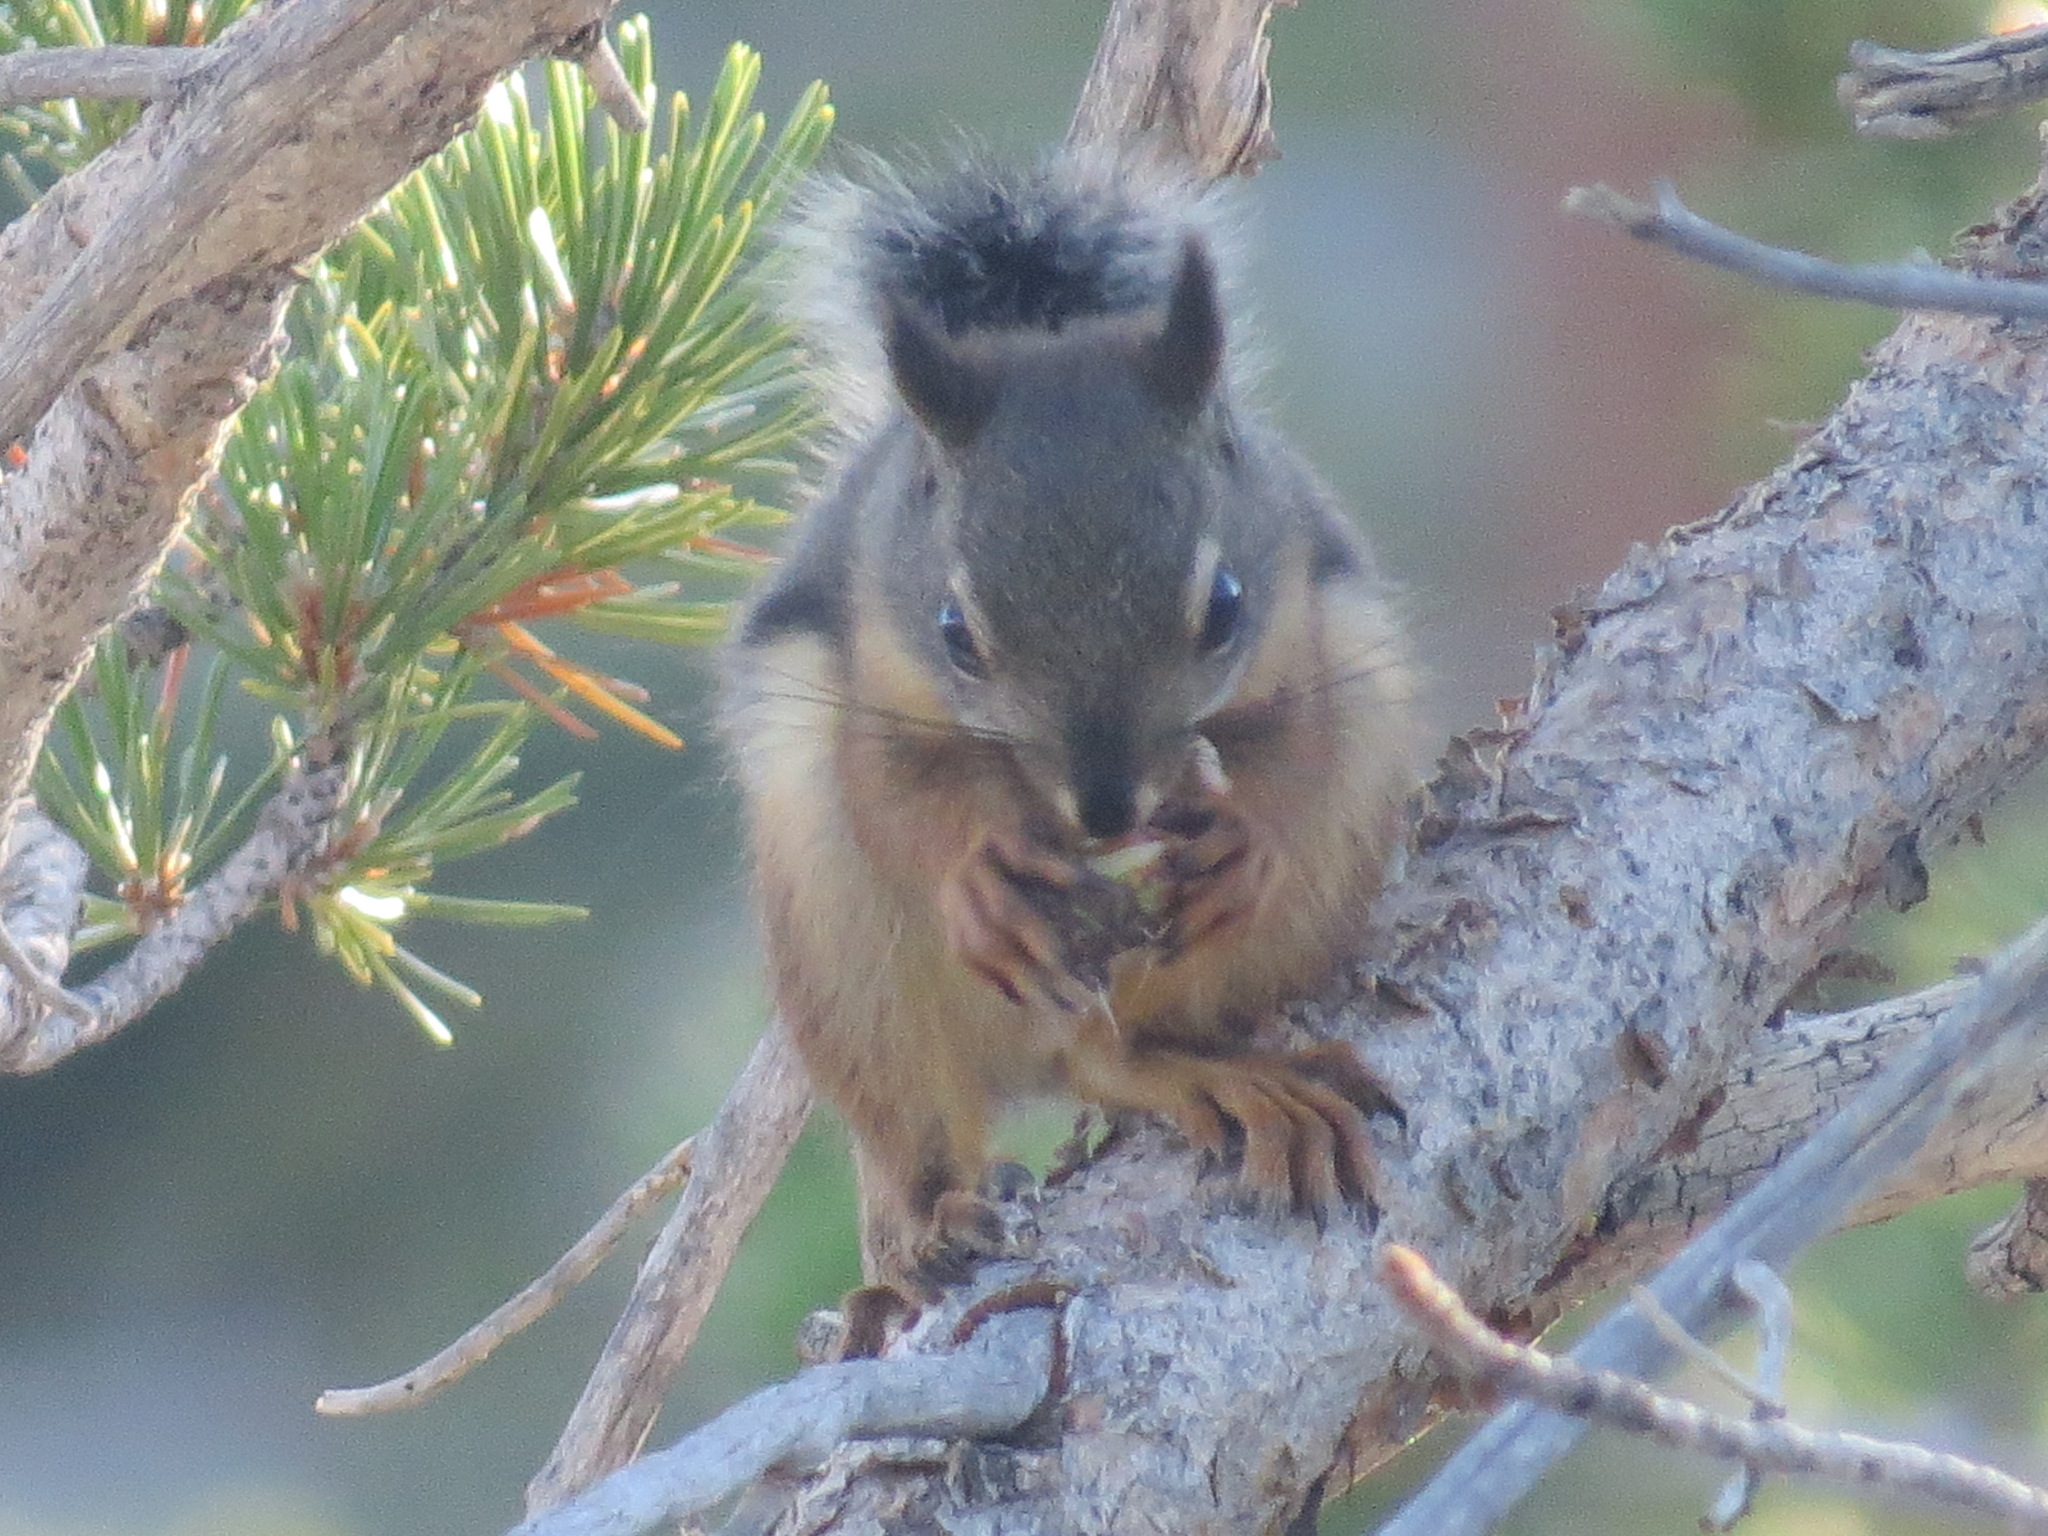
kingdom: Animalia
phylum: Chordata
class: Mammalia
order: Rodentia
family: Sciuridae
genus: Tamiasciurus
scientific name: Tamiasciurus douglasii
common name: Douglas's squirrel
